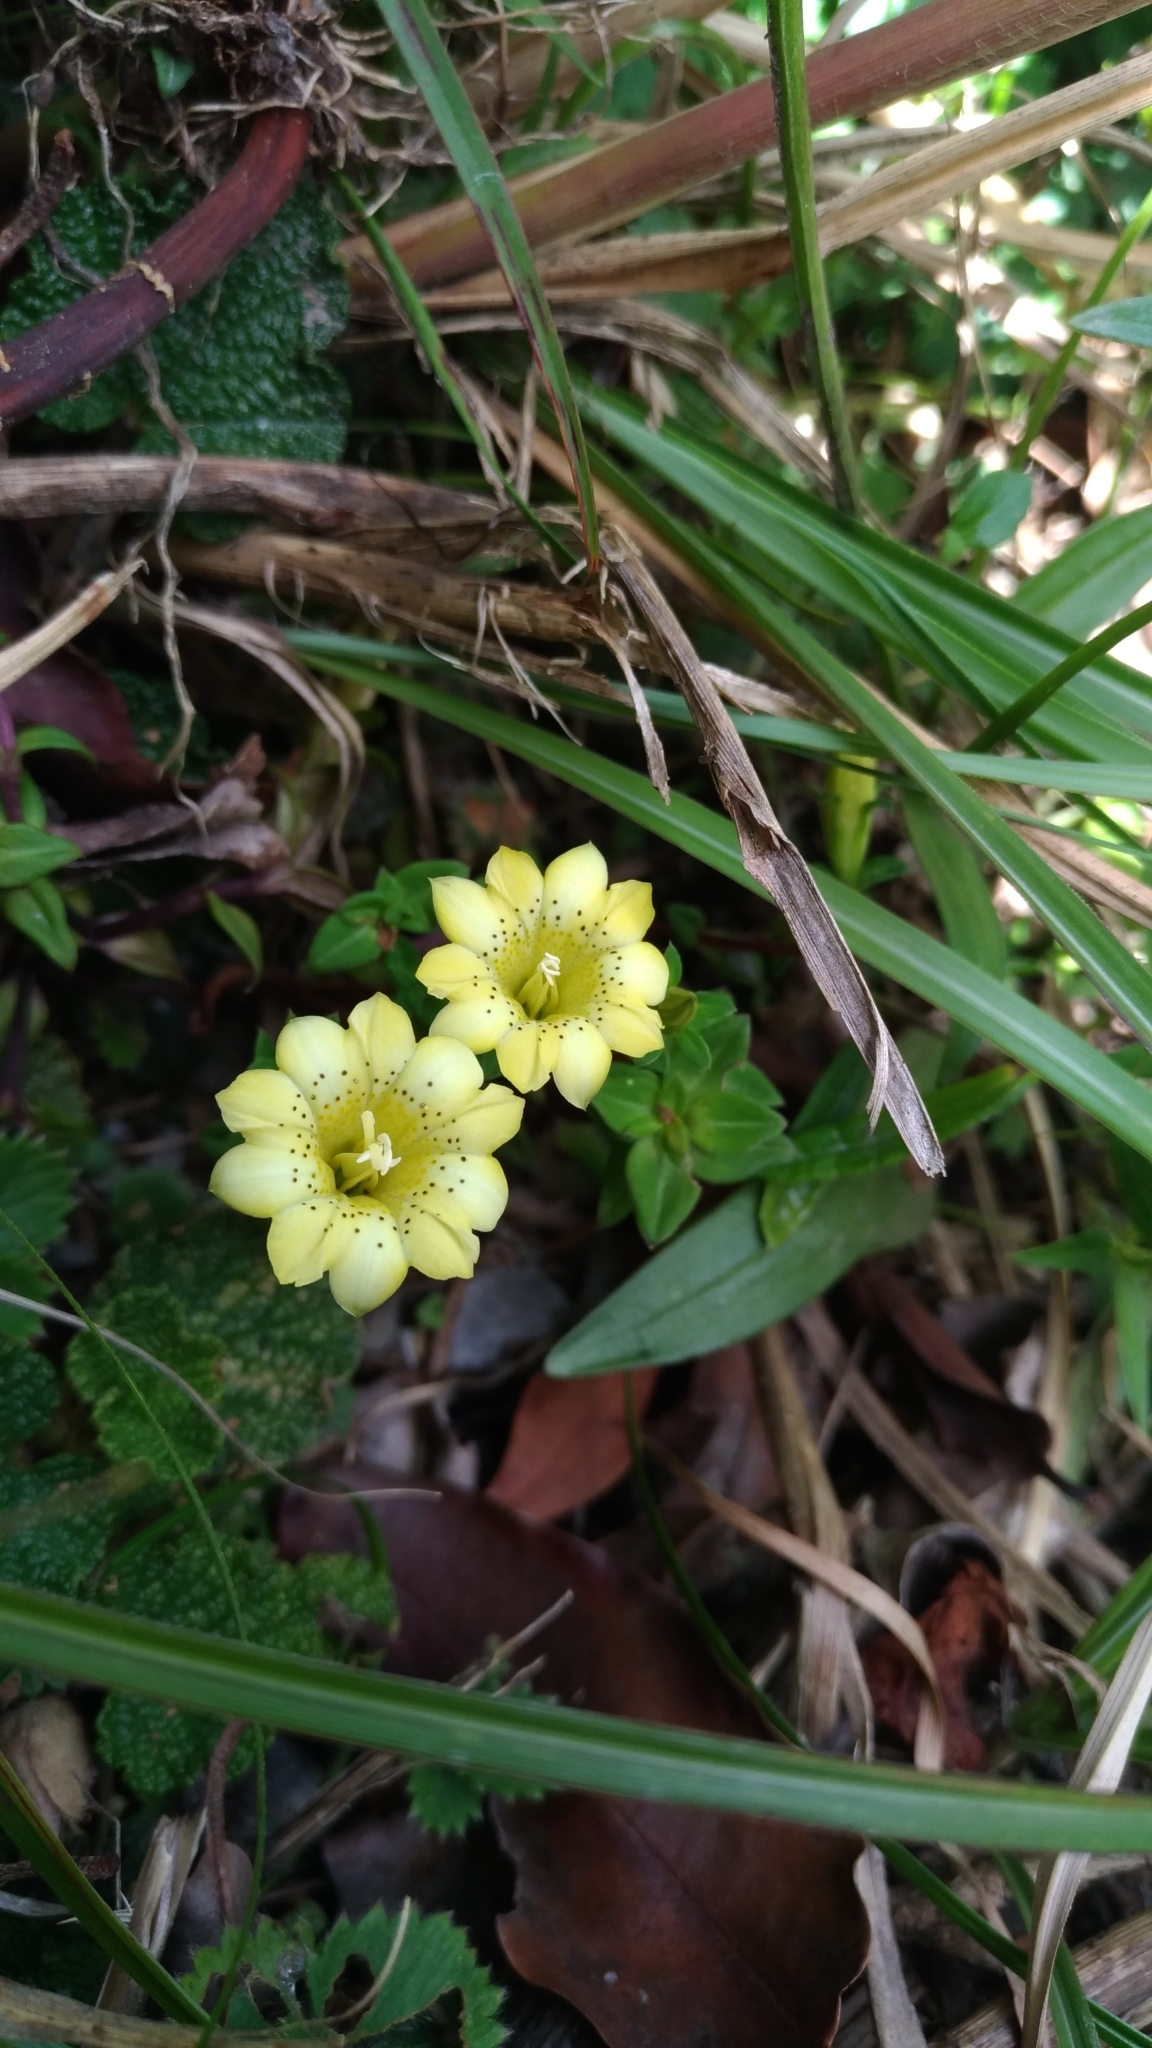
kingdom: Plantae
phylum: Tracheophyta
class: Magnoliopsida
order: Gentianales
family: Gentianaceae
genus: Gentiana
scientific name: Gentiana scabrida
